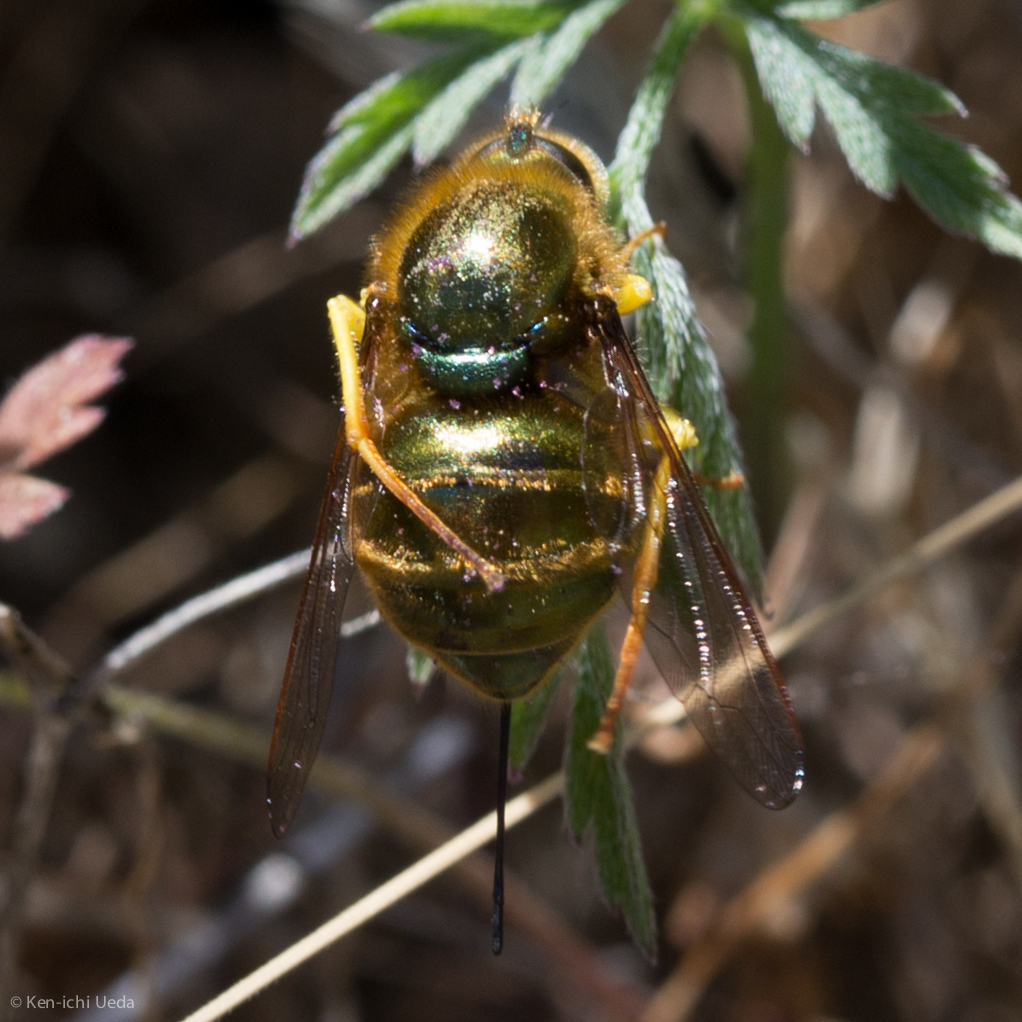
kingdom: Animalia
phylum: Arthropoda
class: Insecta
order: Diptera
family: Acroceridae
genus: Eulonchus
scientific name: Eulonchus smaragdinus
